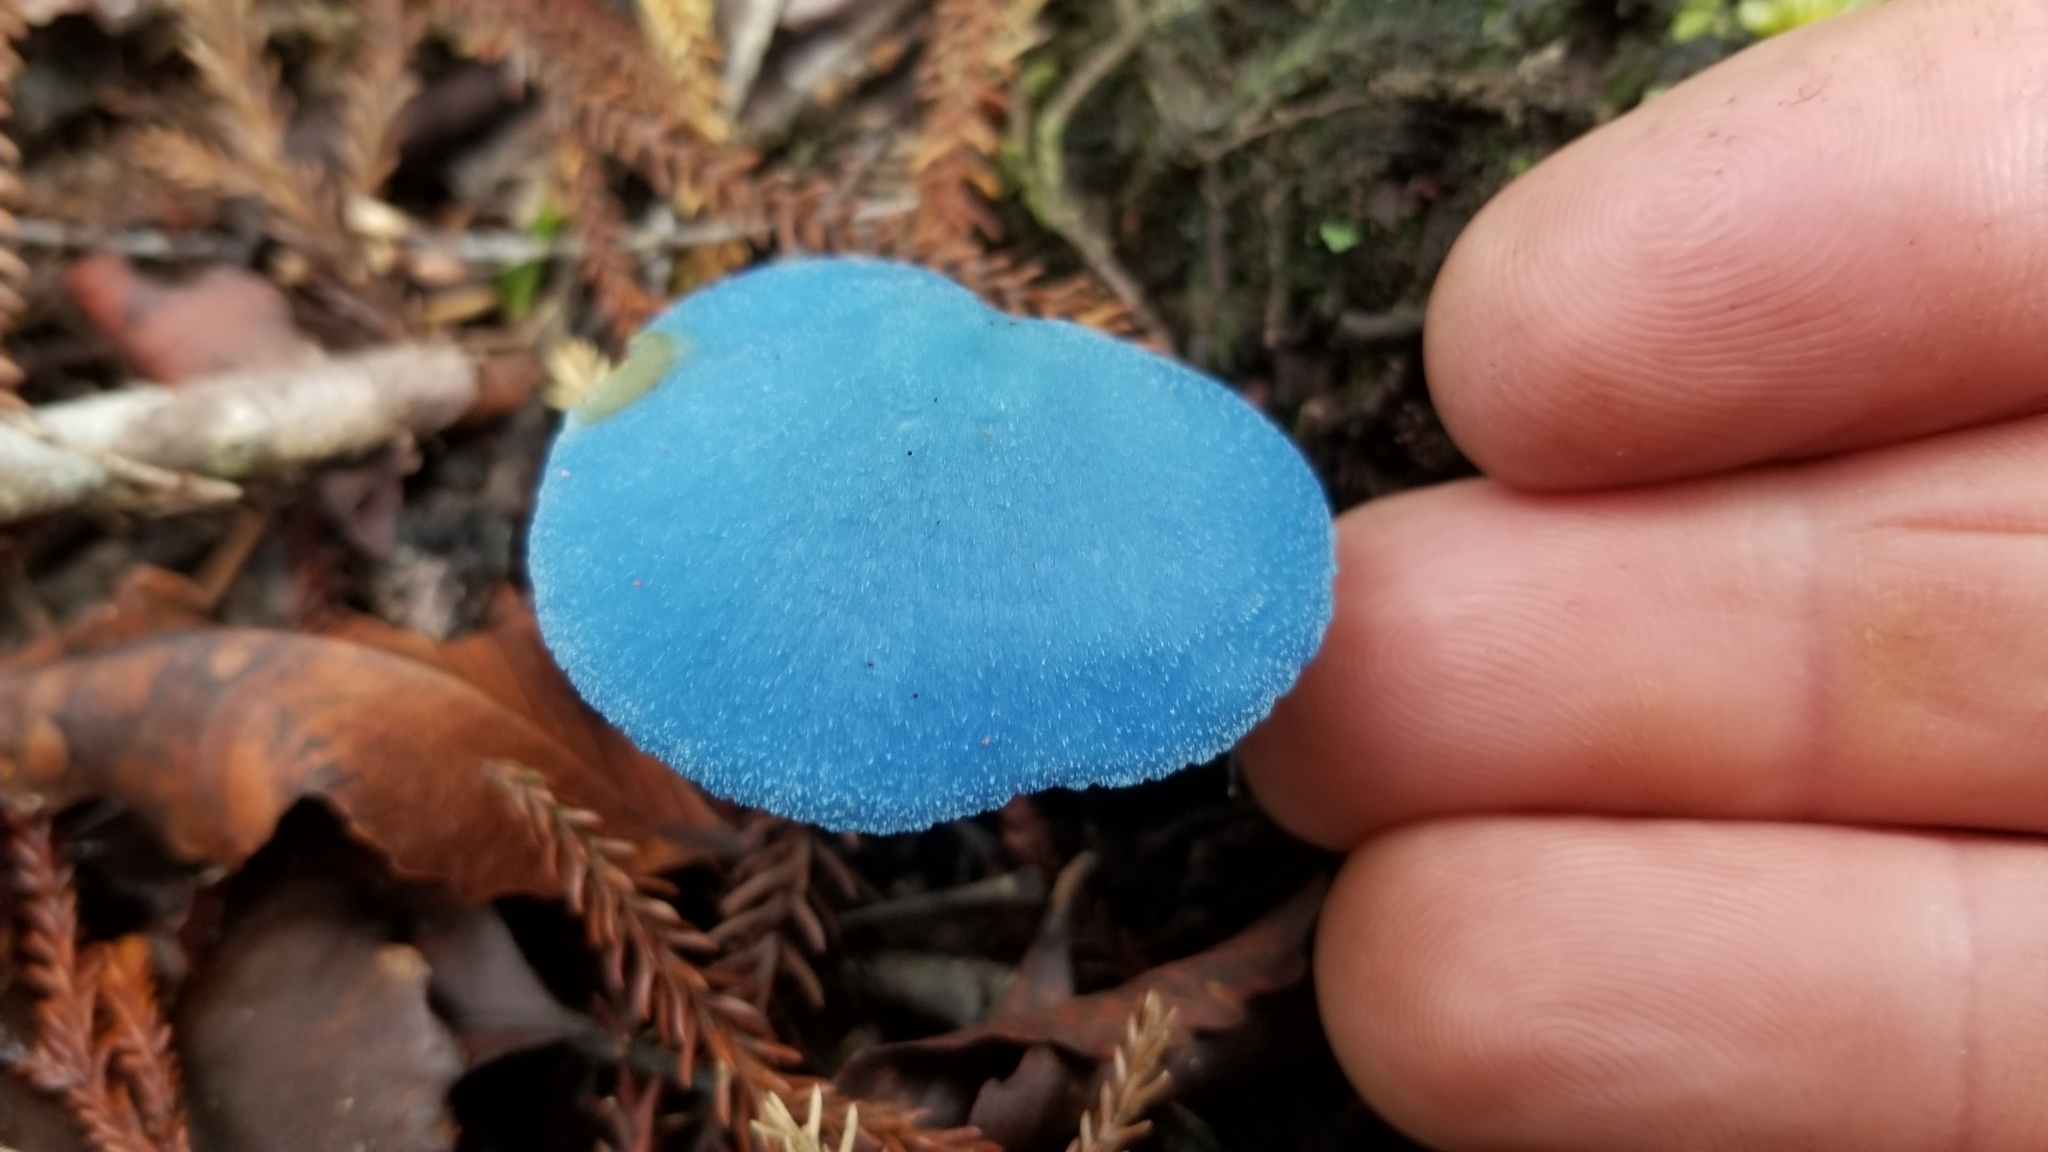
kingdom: Fungi
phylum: Basidiomycota
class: Agaricomycetes
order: Agaricales
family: Entolomataceae
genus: Entoloma
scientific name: Entoloma hochstetteri
